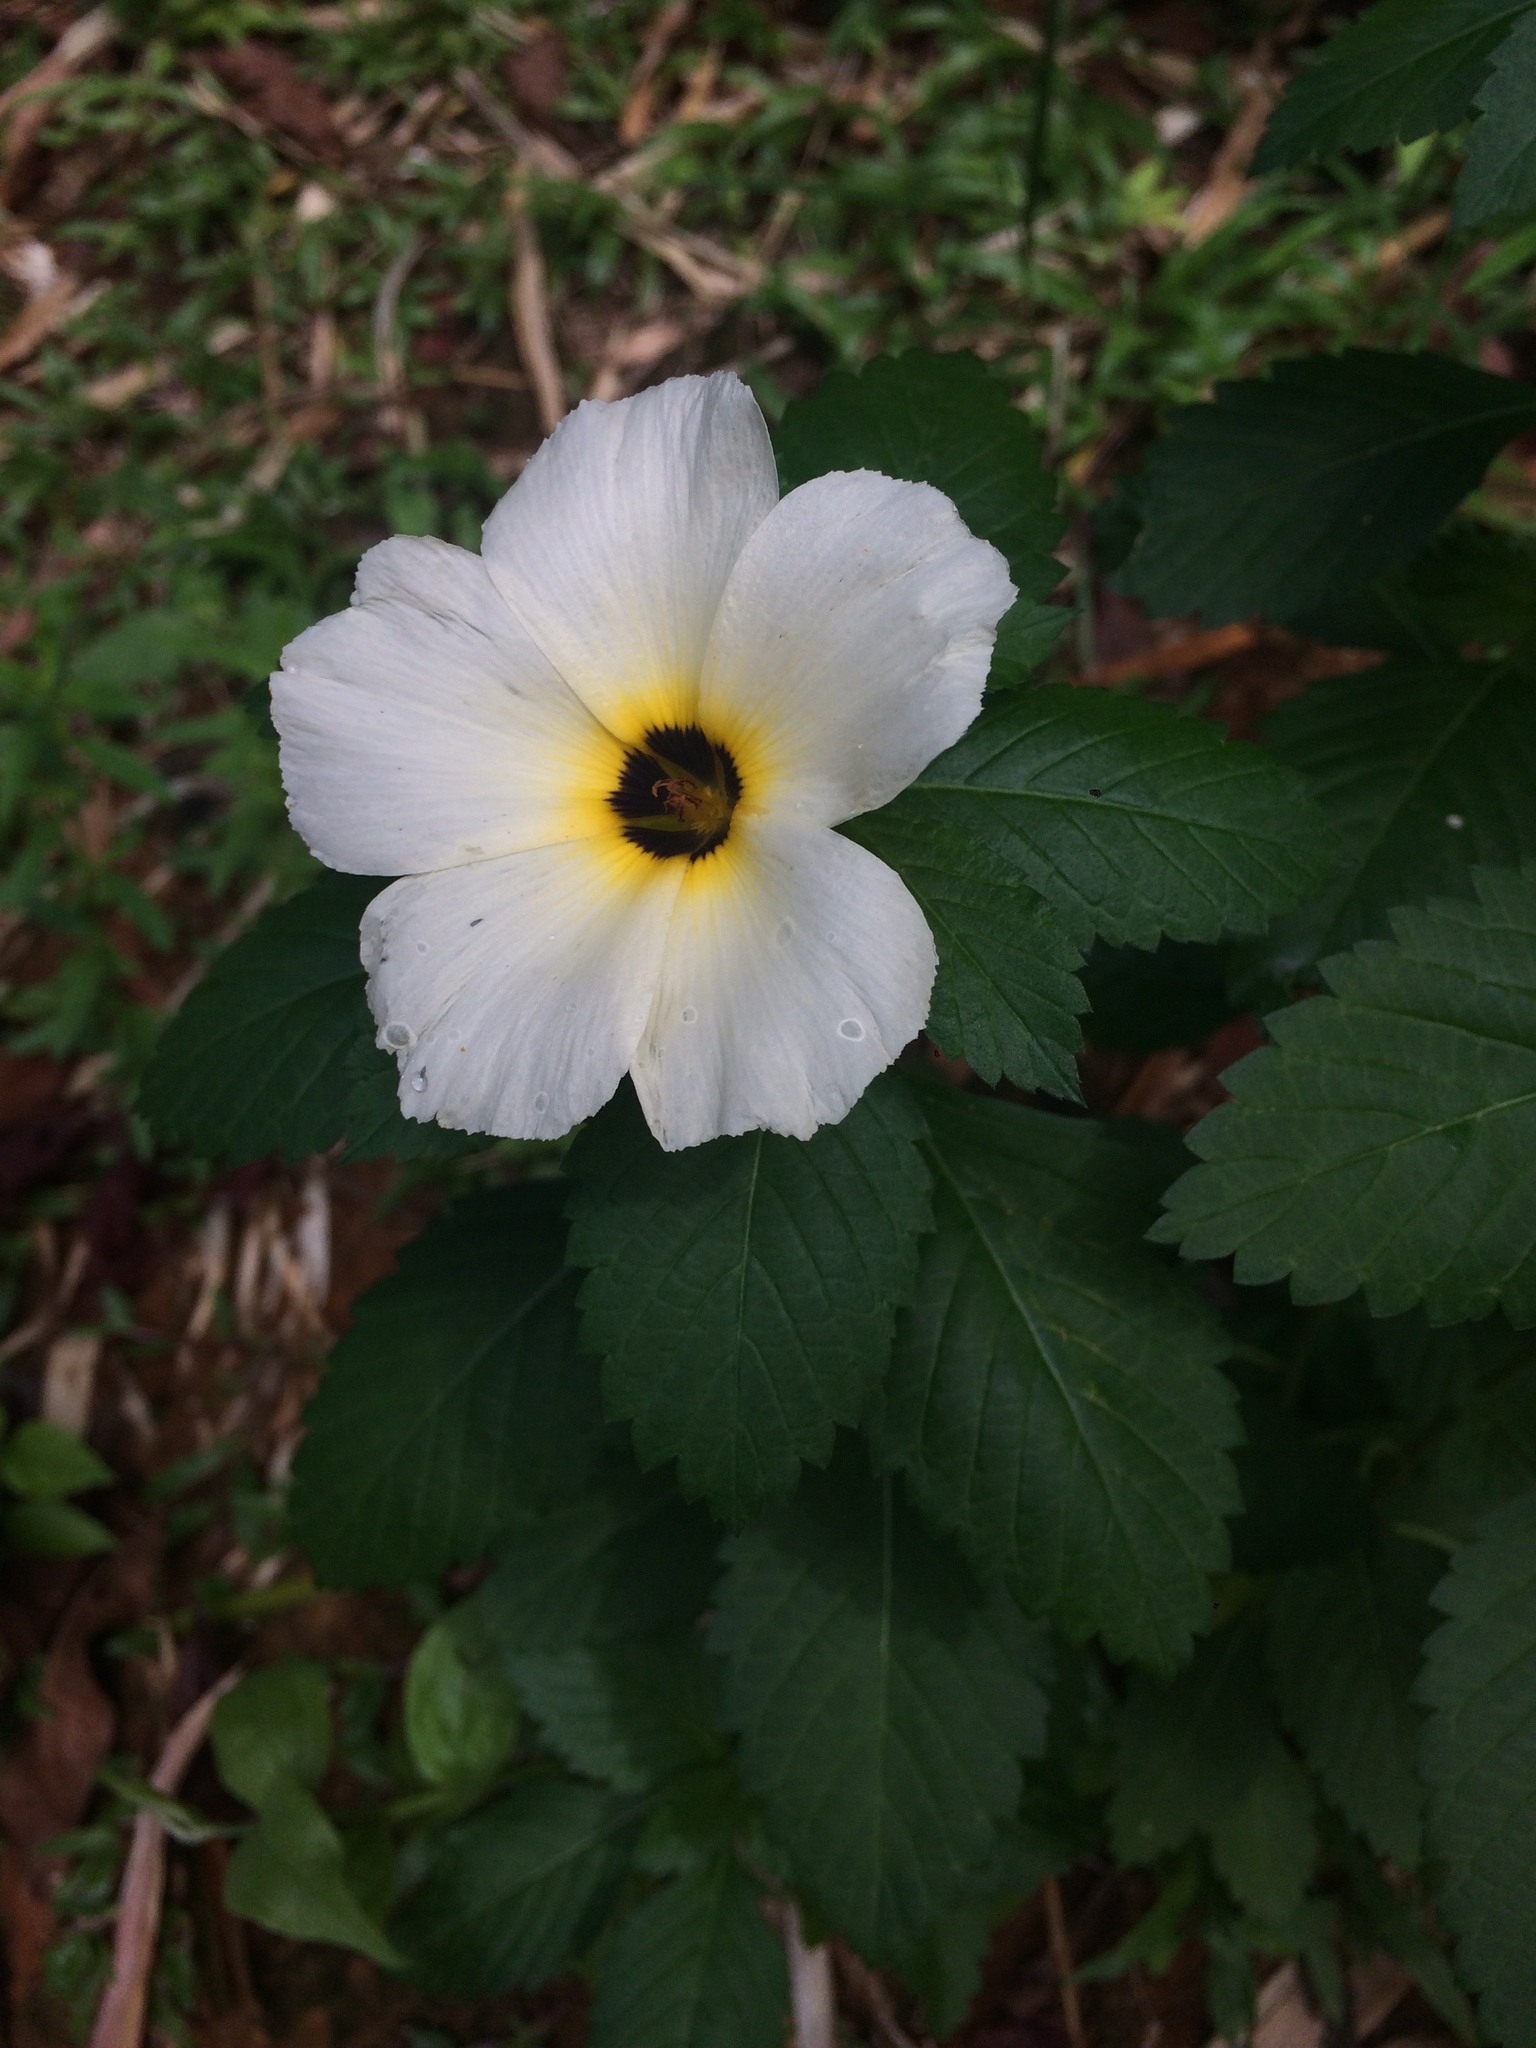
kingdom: Plantae
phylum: Tracheophyta
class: Magnoliopsida
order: Malpighiales
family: Turneraceae
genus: Turnera
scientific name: Turnera subulata
